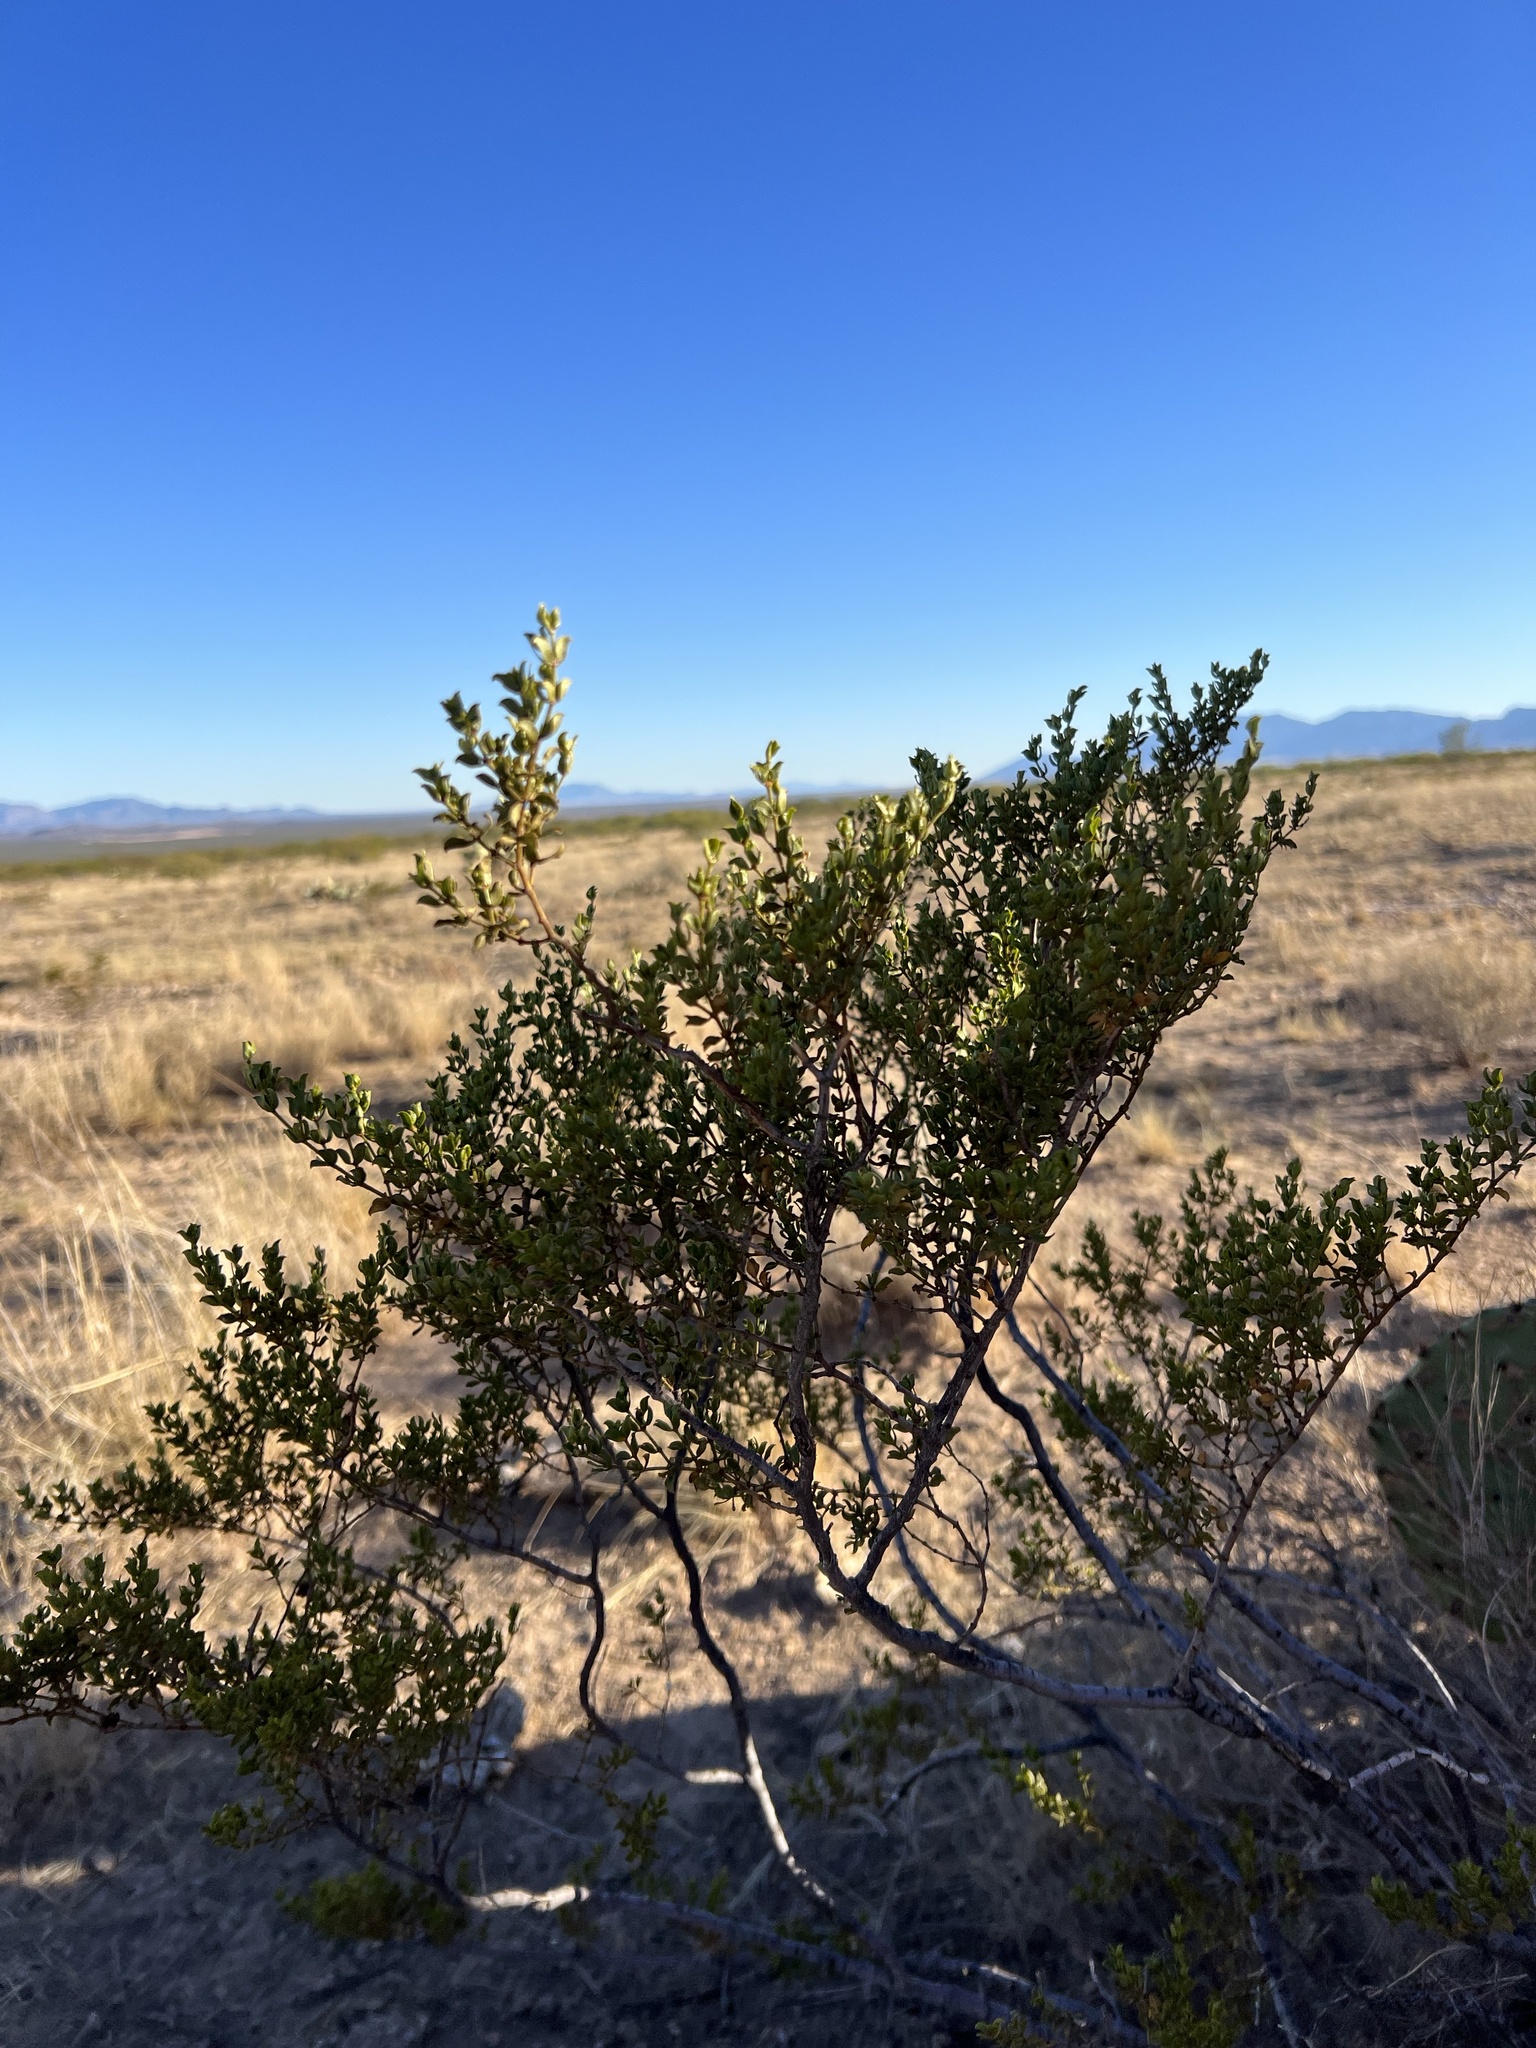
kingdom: Plantae
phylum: Tracheophyta
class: Magnoliopsida
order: Zygophyllales
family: Zygophyllaceae
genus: Larrea
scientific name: Larrea tridentata
